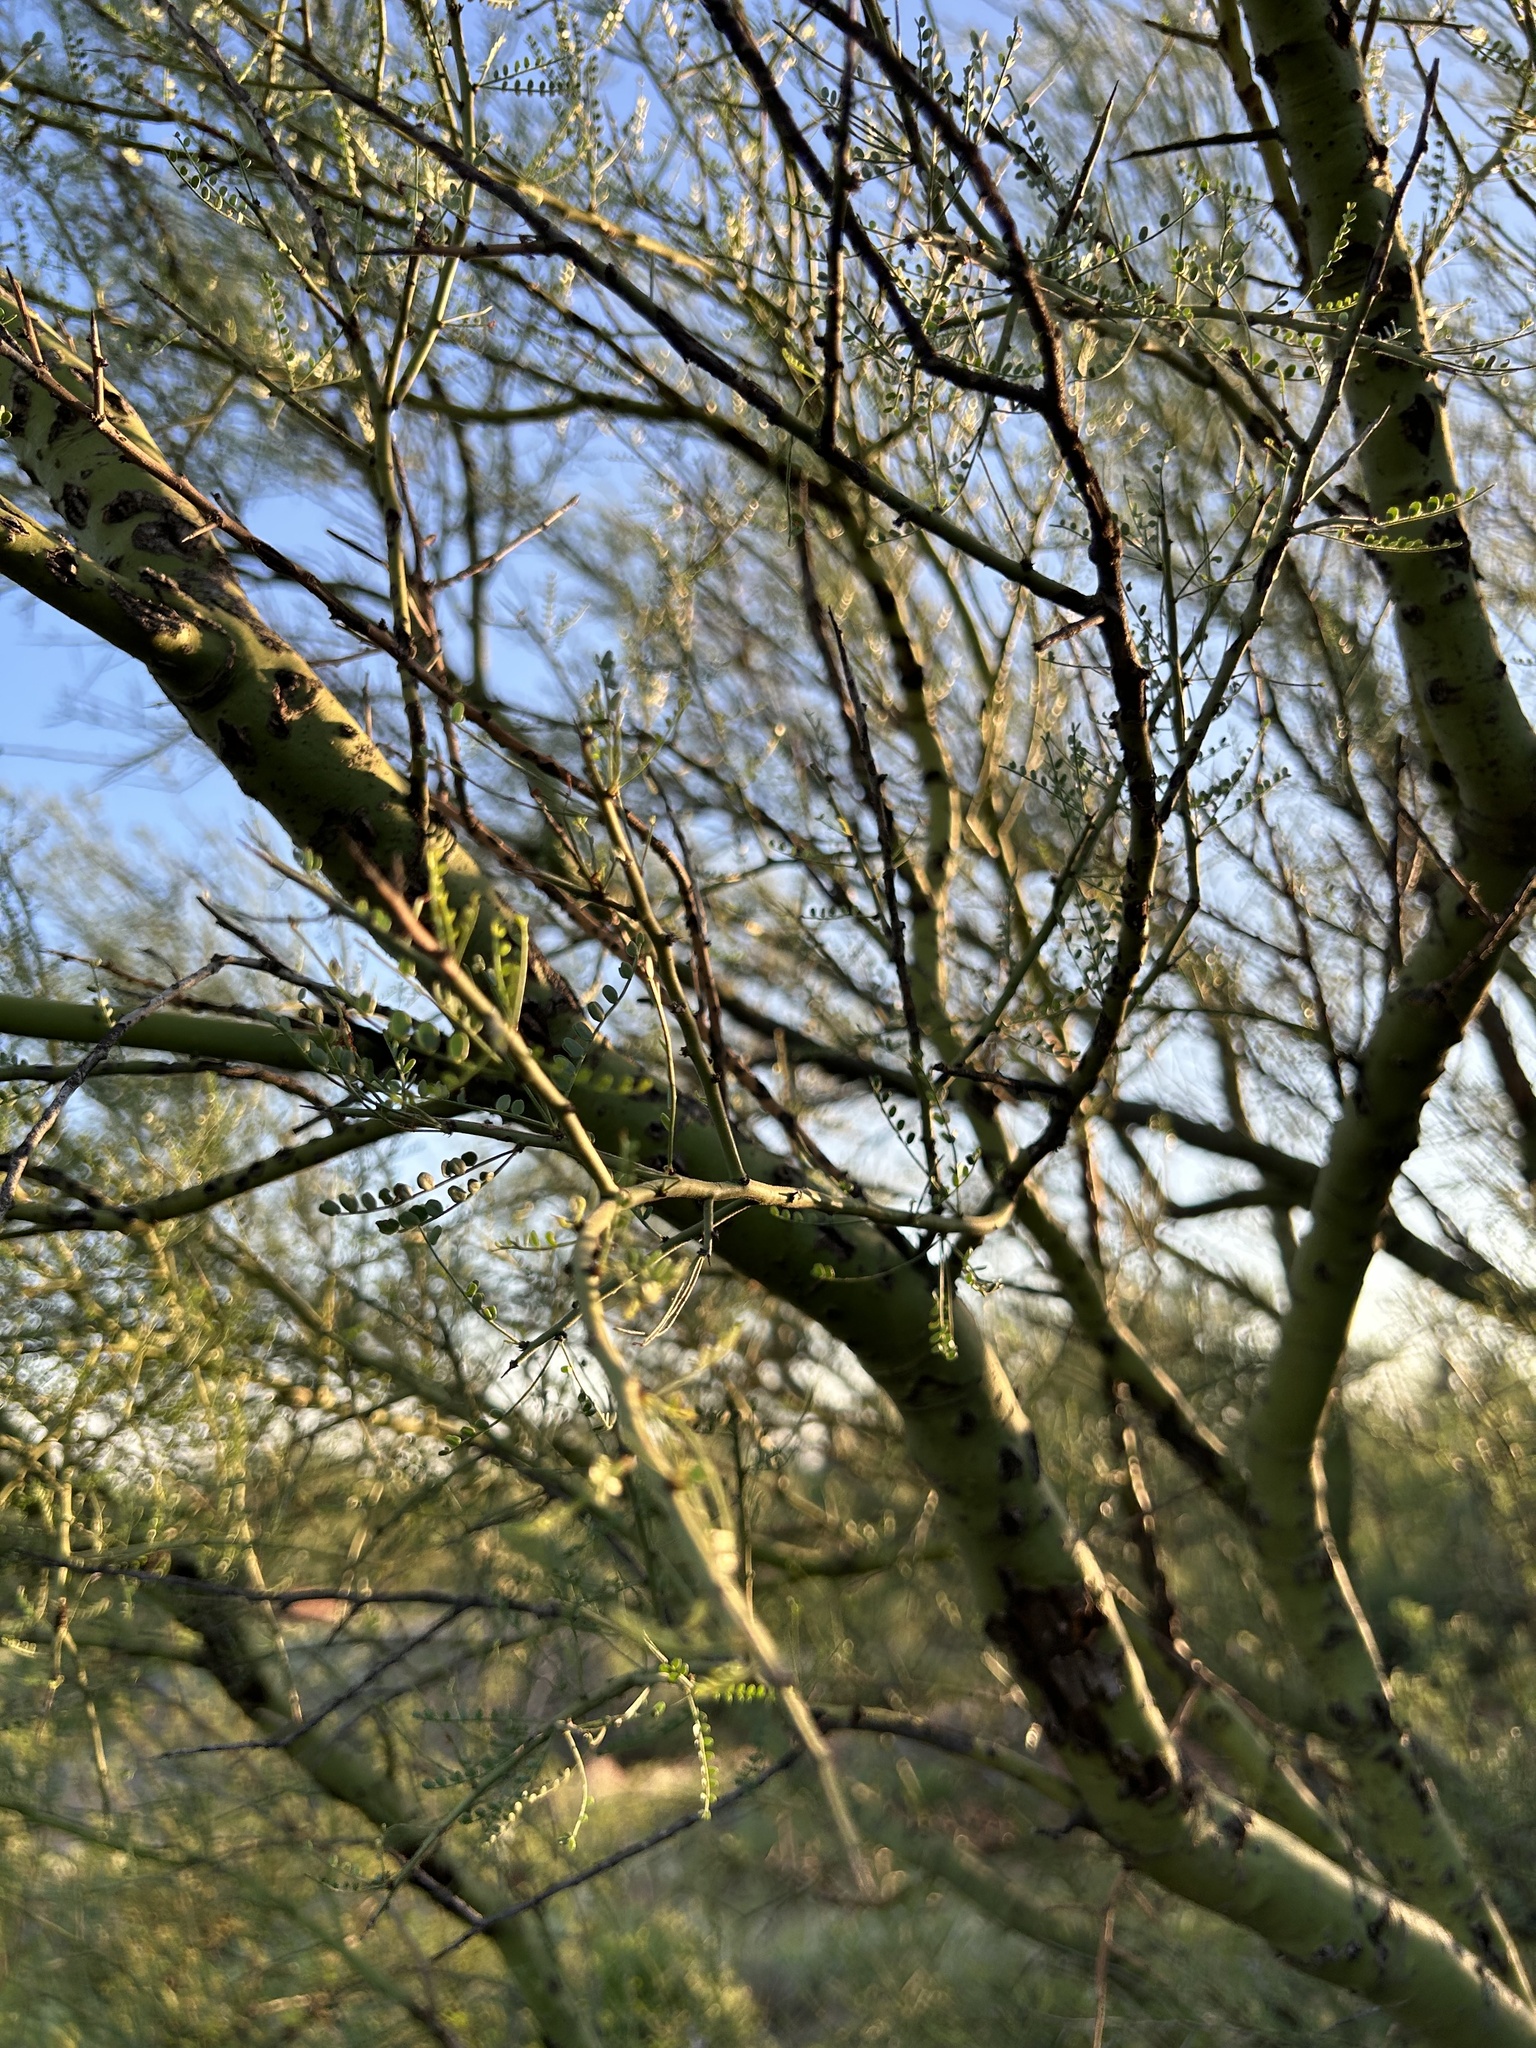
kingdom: Plantae
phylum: Tracheophyta
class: Magnoliopsida
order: Fabales
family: Fabaceae
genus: Parkinsonia
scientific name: Parkinsonia microphylla
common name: Yellow paloverde
